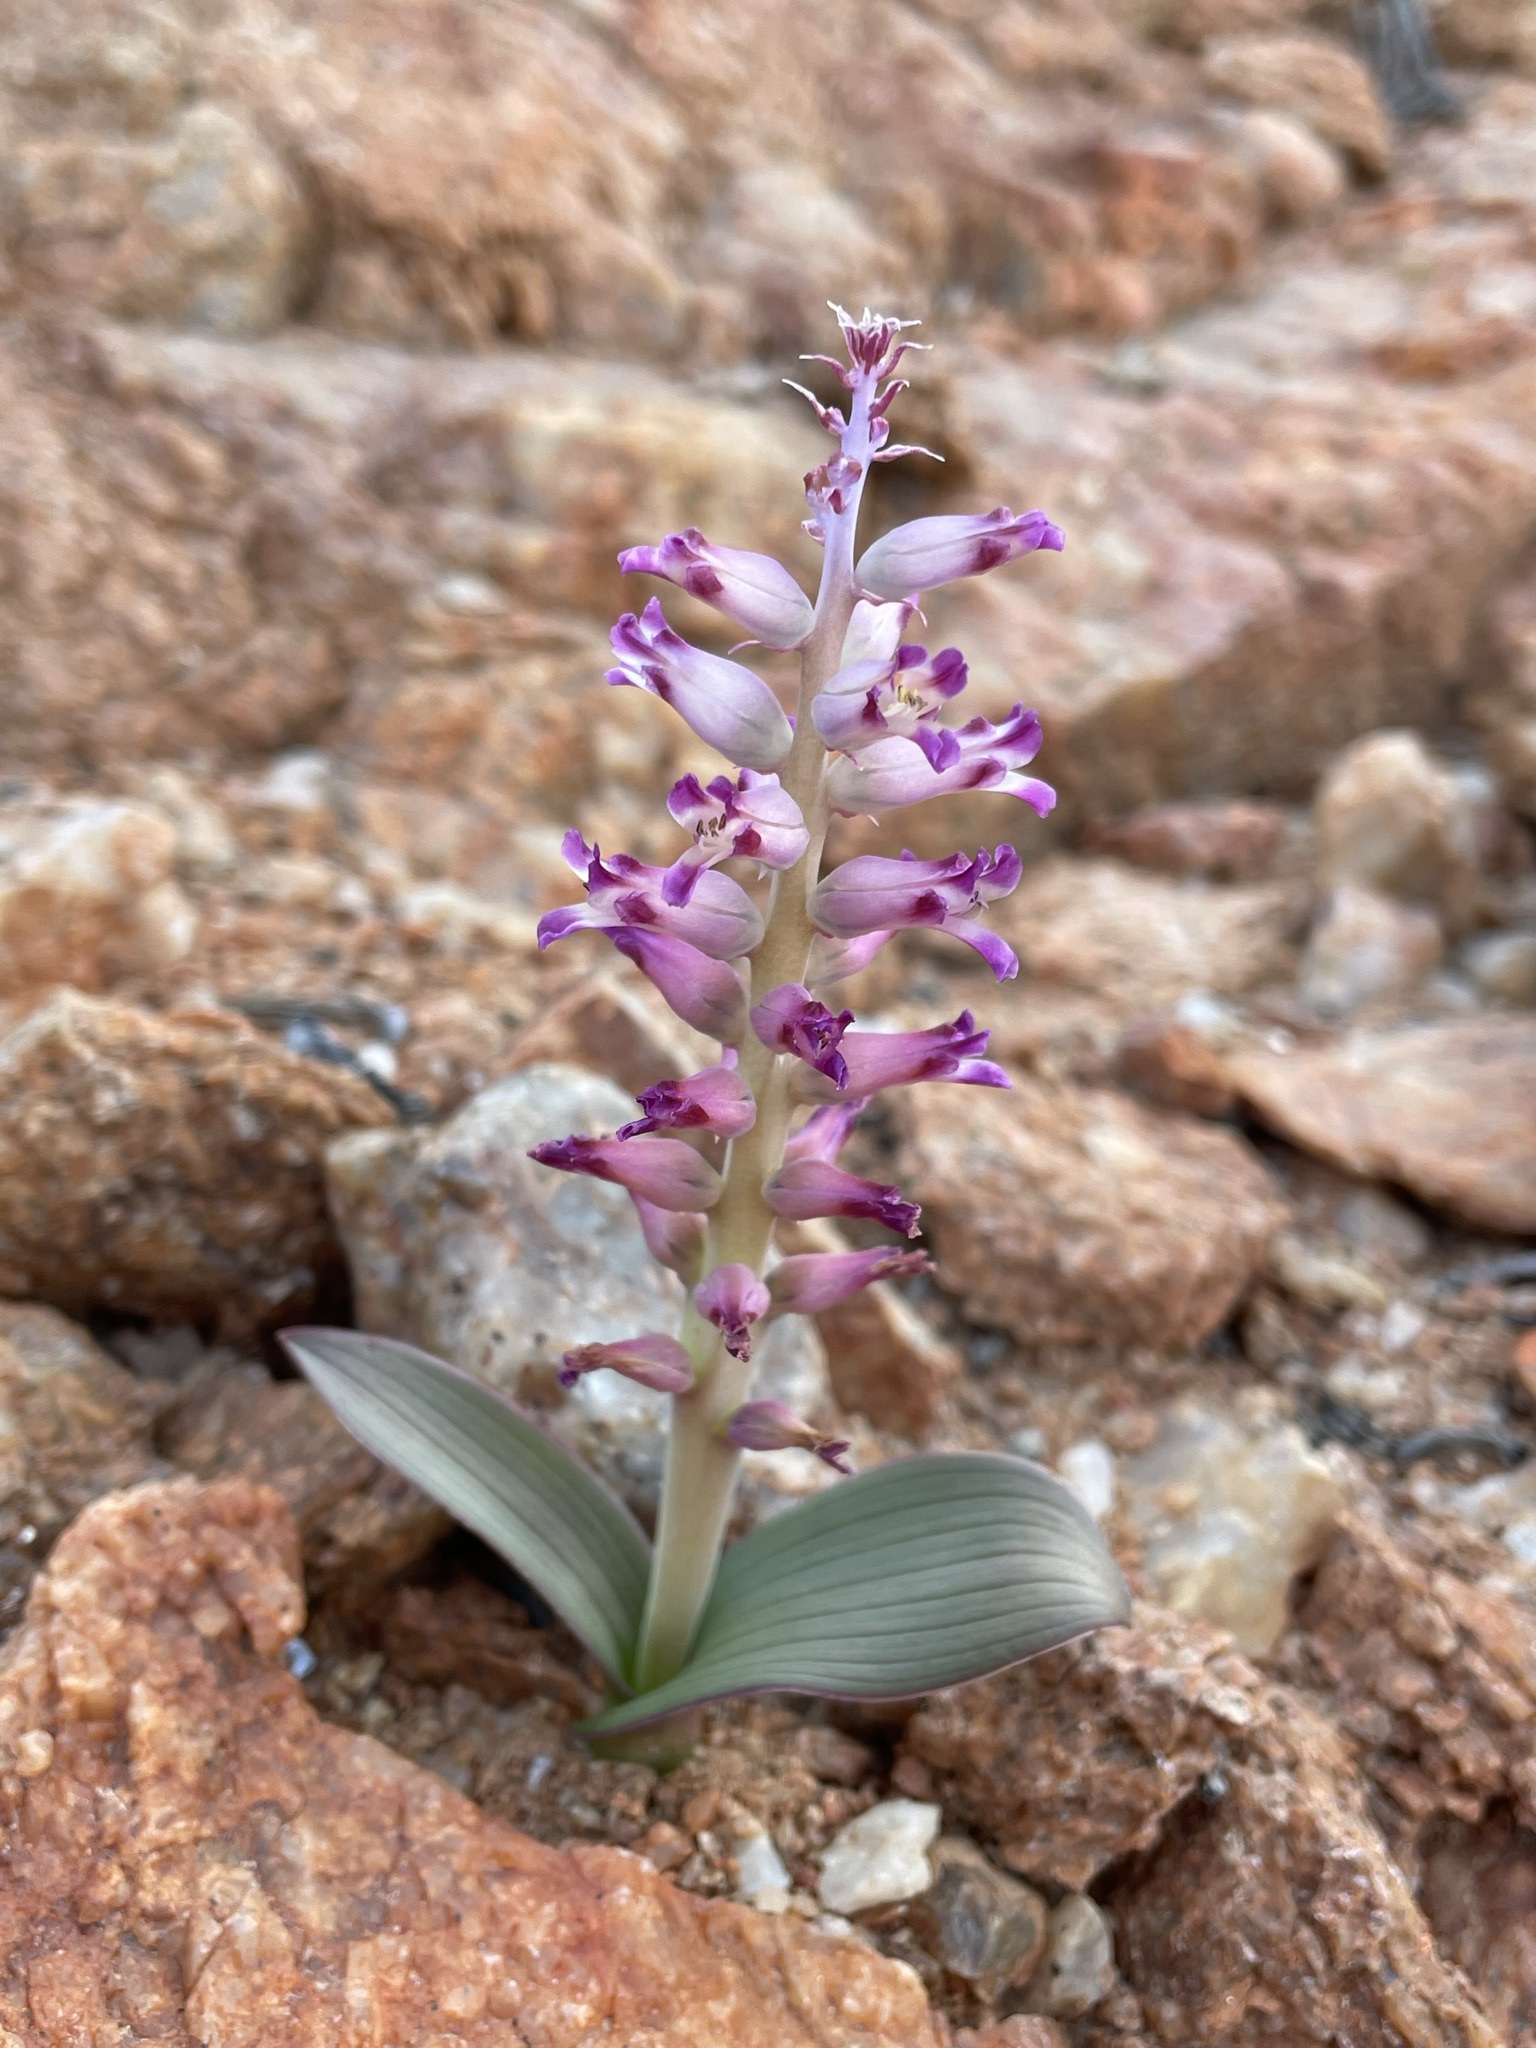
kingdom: Plantae
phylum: Tracheophyta
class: Liliopsida
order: Asparagales
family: Asparagaceae
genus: Lachenalia
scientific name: Lachenalia carnosa
